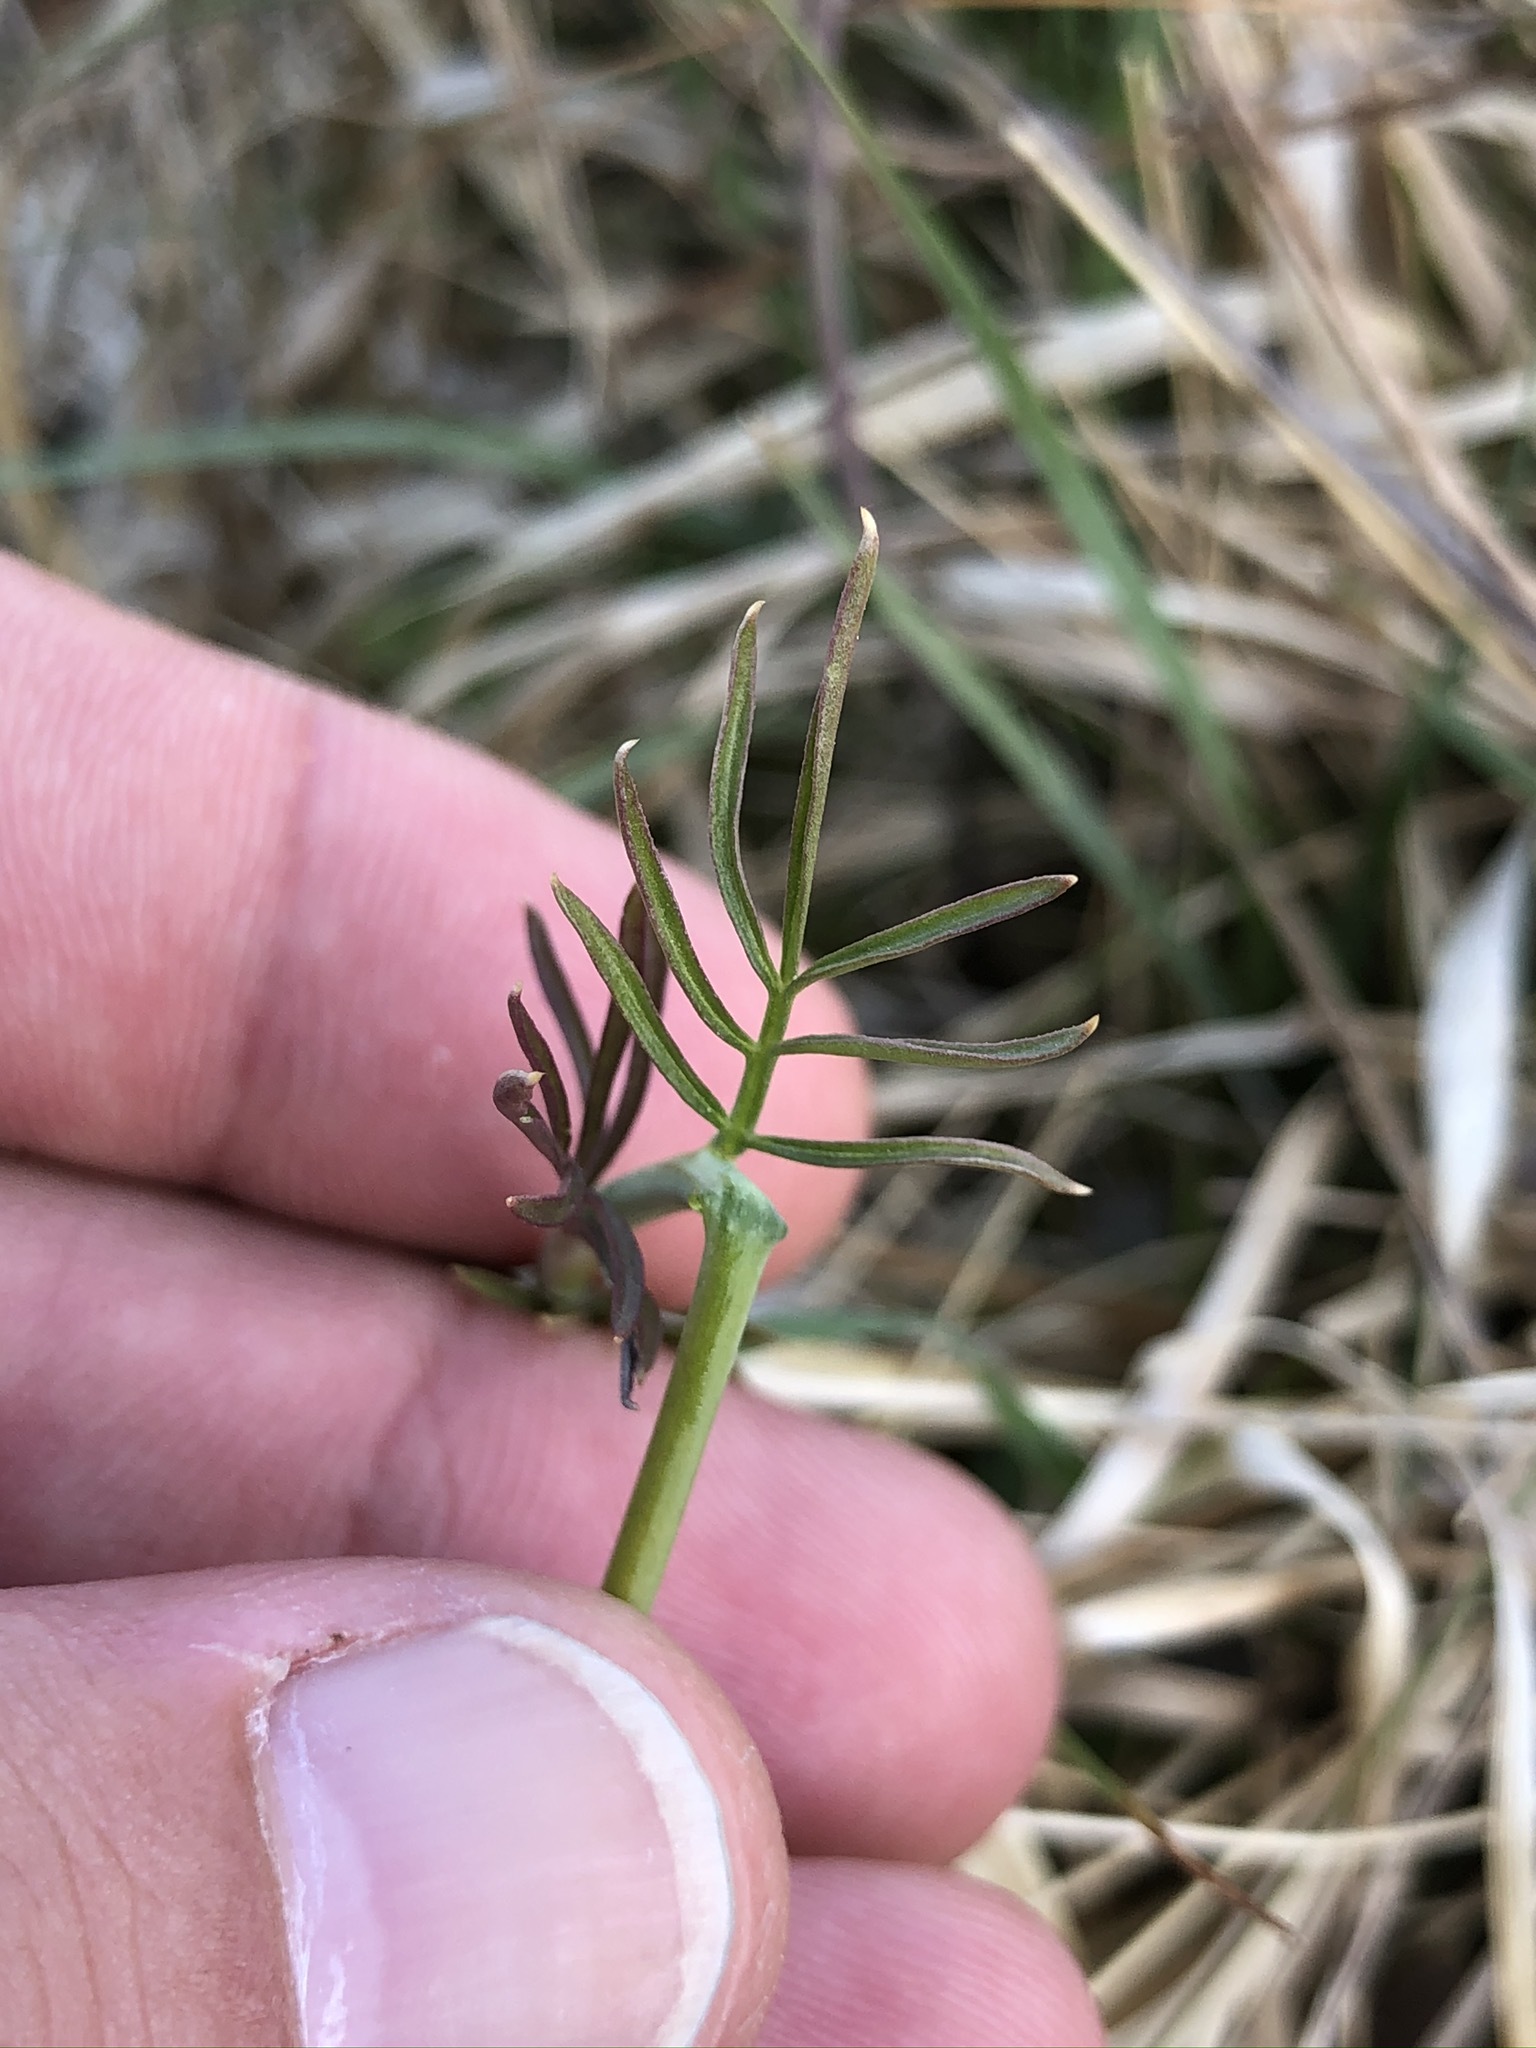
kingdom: Plantae
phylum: Tracheophyta
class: Magnoliopsida
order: Brassicales
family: Brassicaceae
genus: Cardamine
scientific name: Cardamine pratensis
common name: Cuckoo flower
